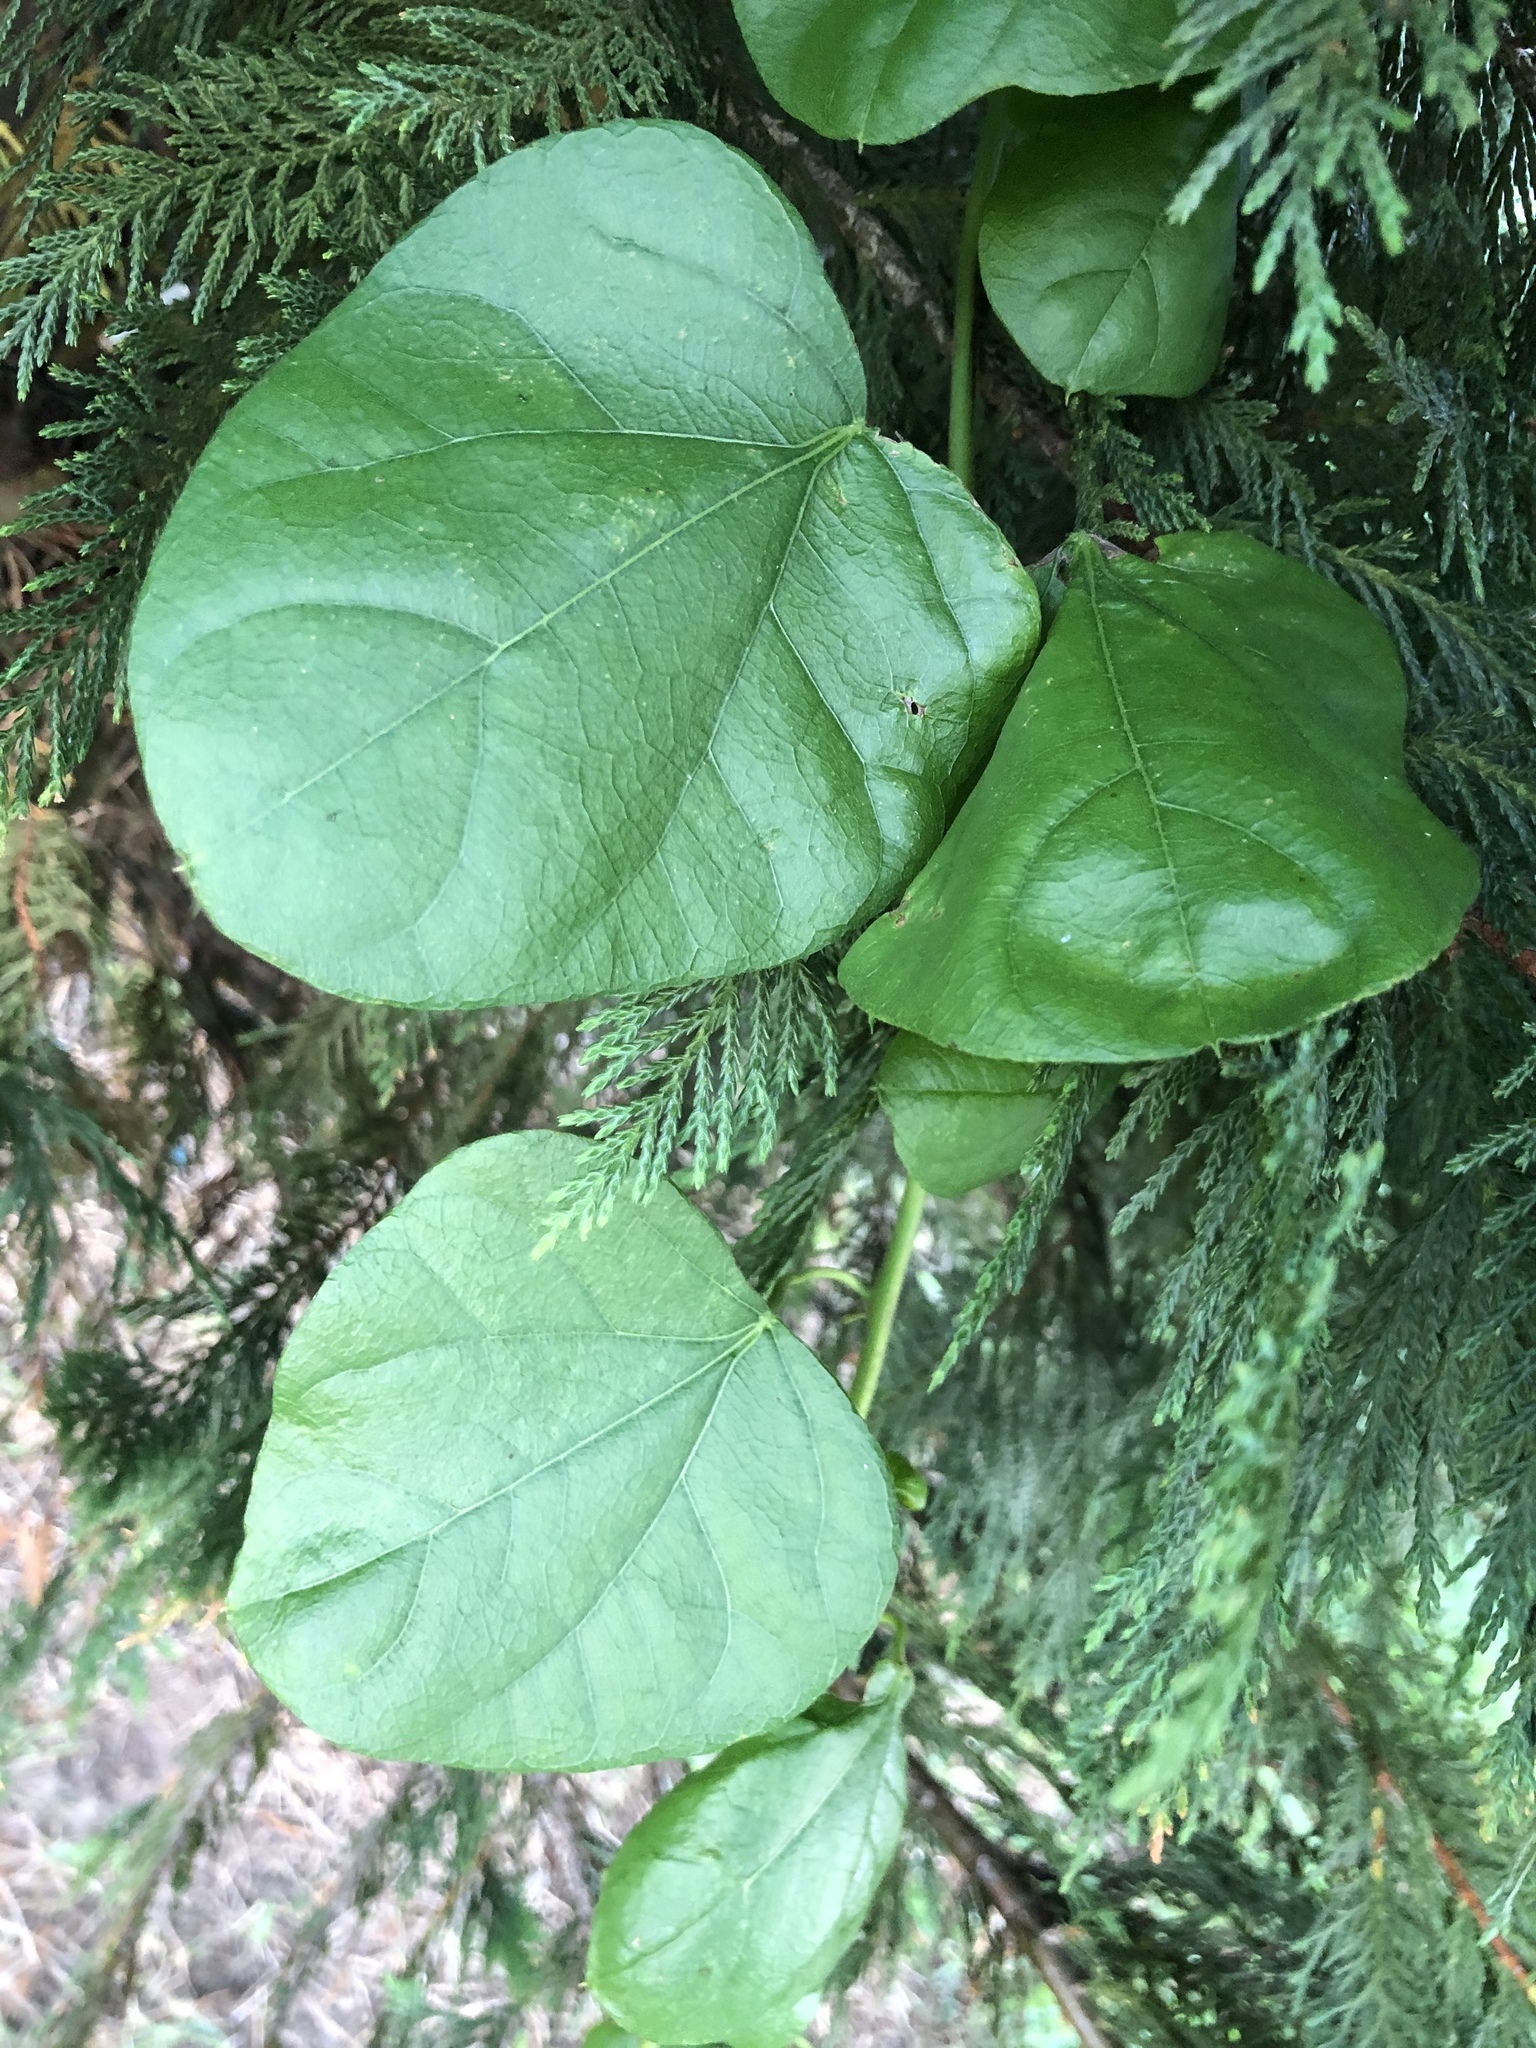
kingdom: Plantae
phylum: Tracheophyta
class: Magnoliopsida
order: Ranunculales
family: Menispermaceae
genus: Cocculus
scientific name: Cocculus carolinus
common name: Carolina moonseed
